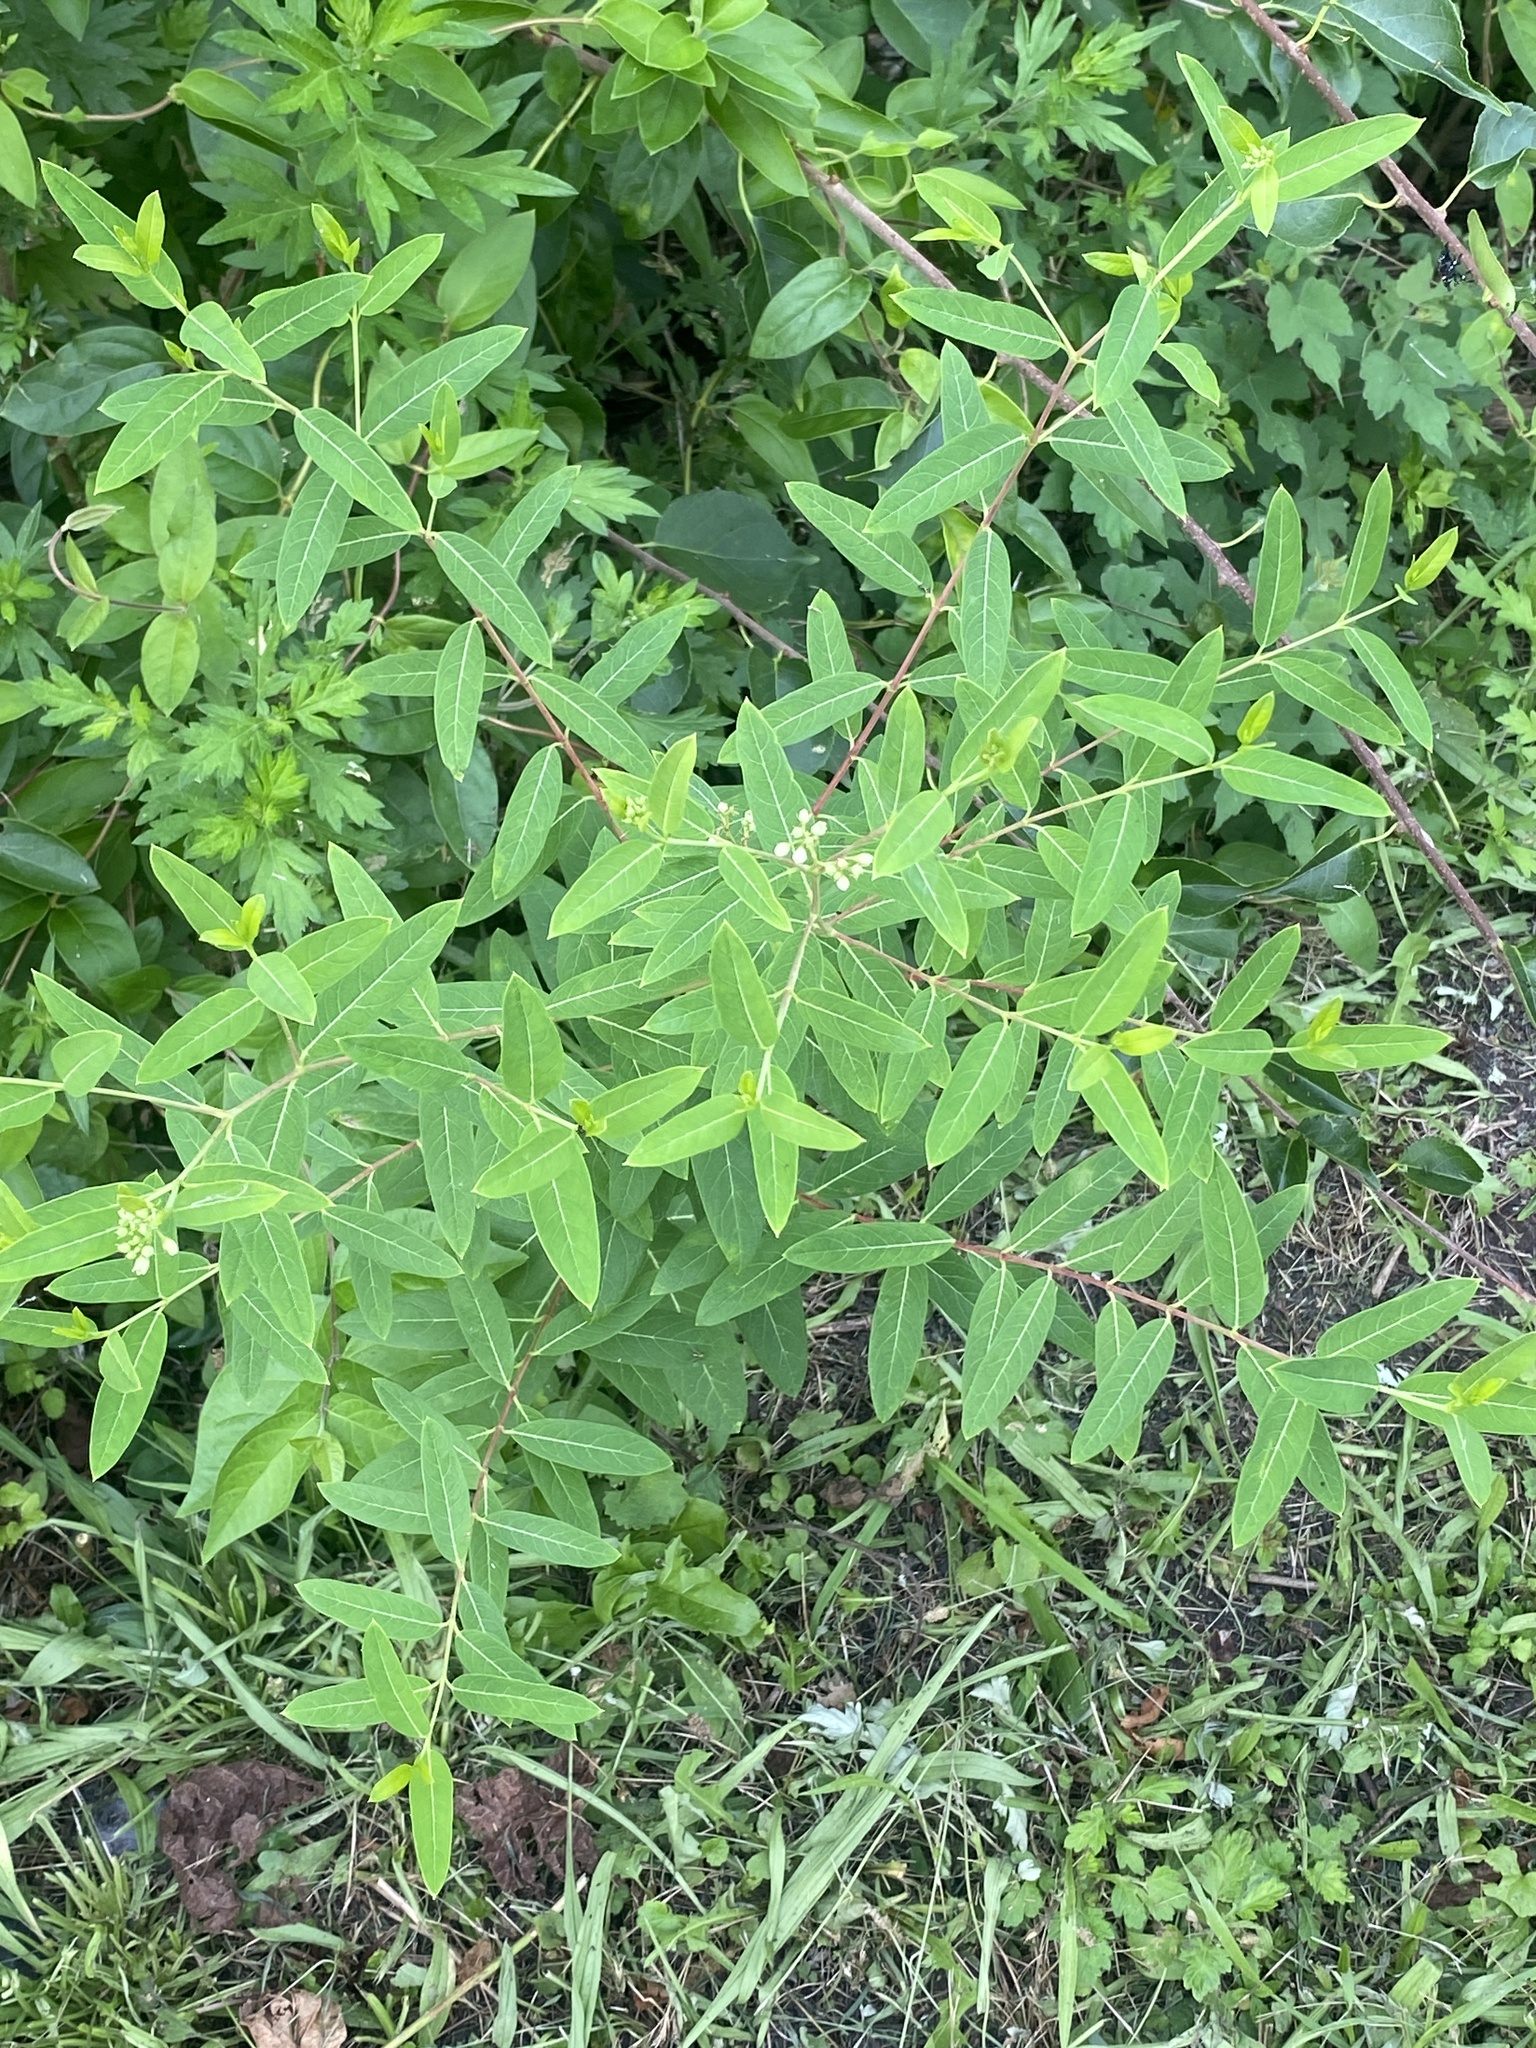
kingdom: Plantae
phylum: Tracheophyta
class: Magnoliopsida
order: Gentianales
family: Apocynaceae
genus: Apocynum
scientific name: Apocynum cannabinum
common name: Hemp dogbane
